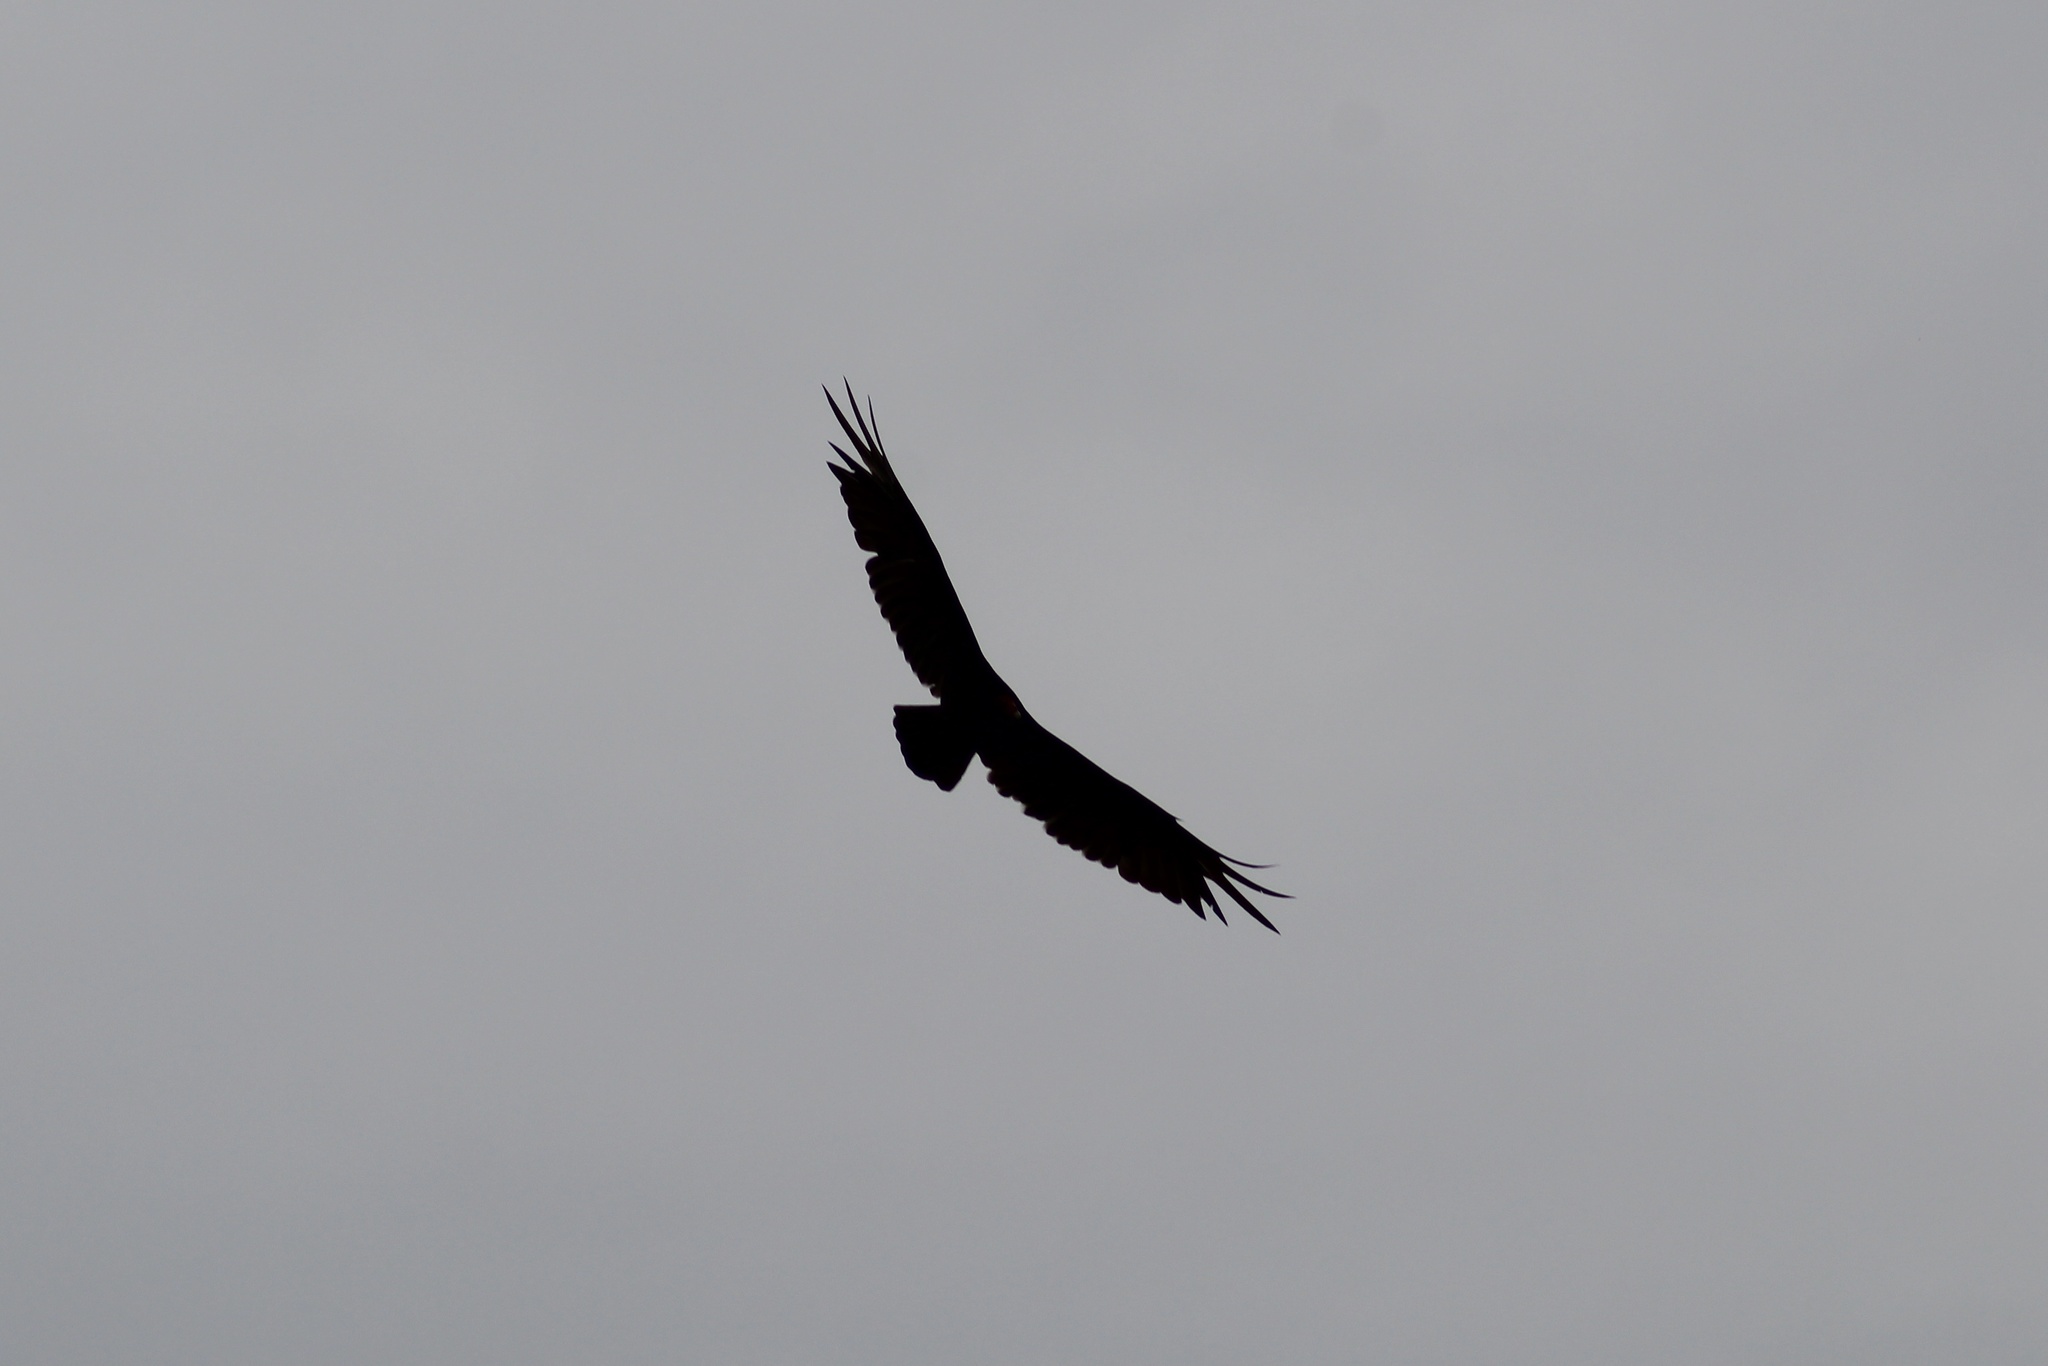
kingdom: Animalia
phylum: Chordata
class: Aves
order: Accipitriformes
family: Cathartidae
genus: Cathartes
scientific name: Cathartes aura
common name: Turkey vulture
